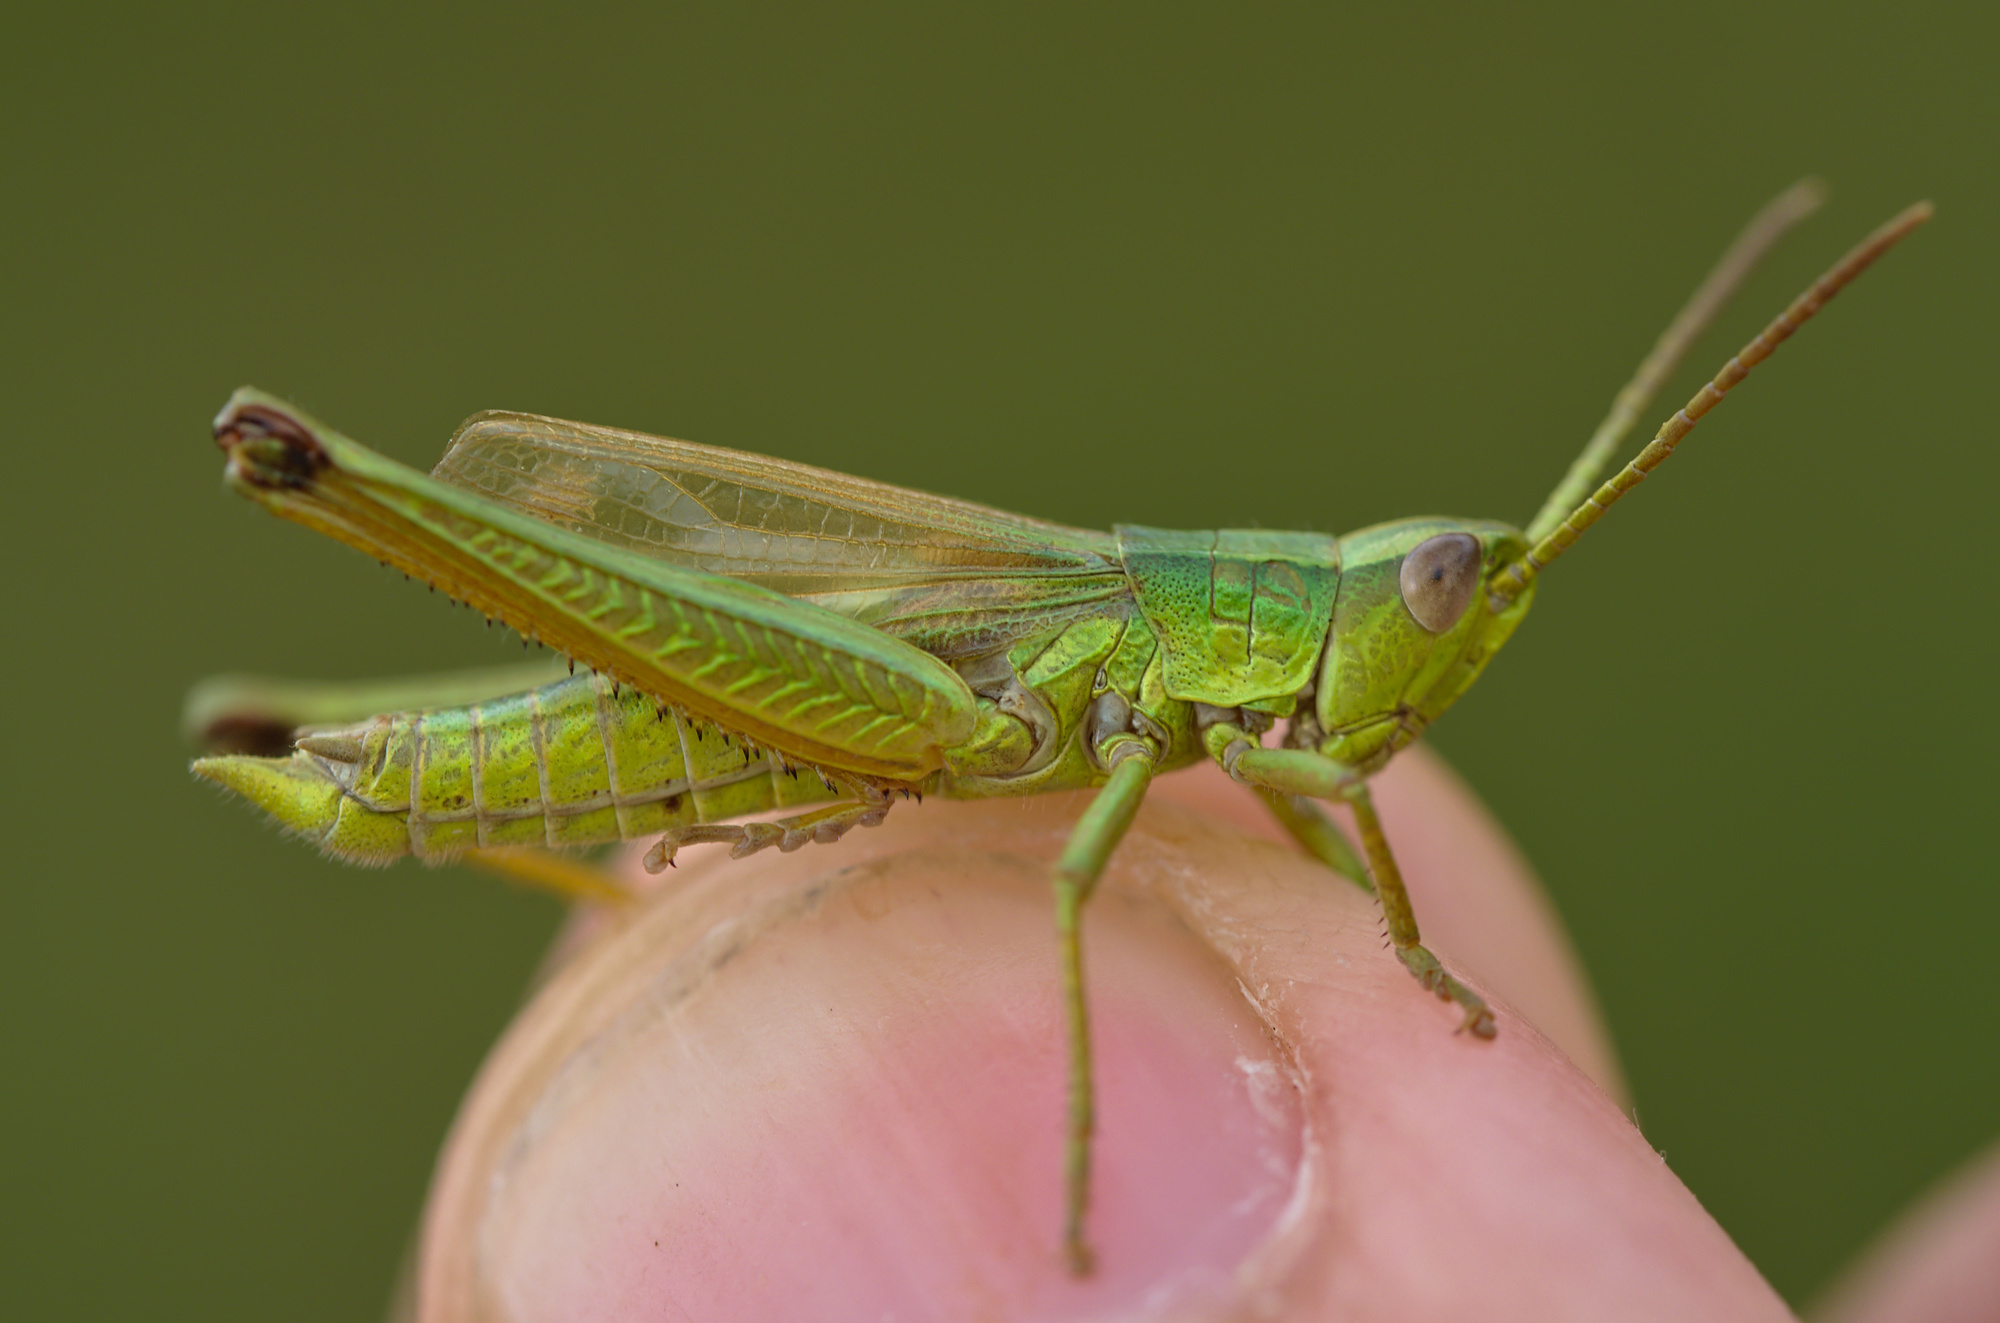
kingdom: Animalia
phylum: Arthropoda
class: Insecta
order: Orthoptera
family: Acrididae
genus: Chrysochraon
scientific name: Chrysochraon dispar
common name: Large gold grasshopper
